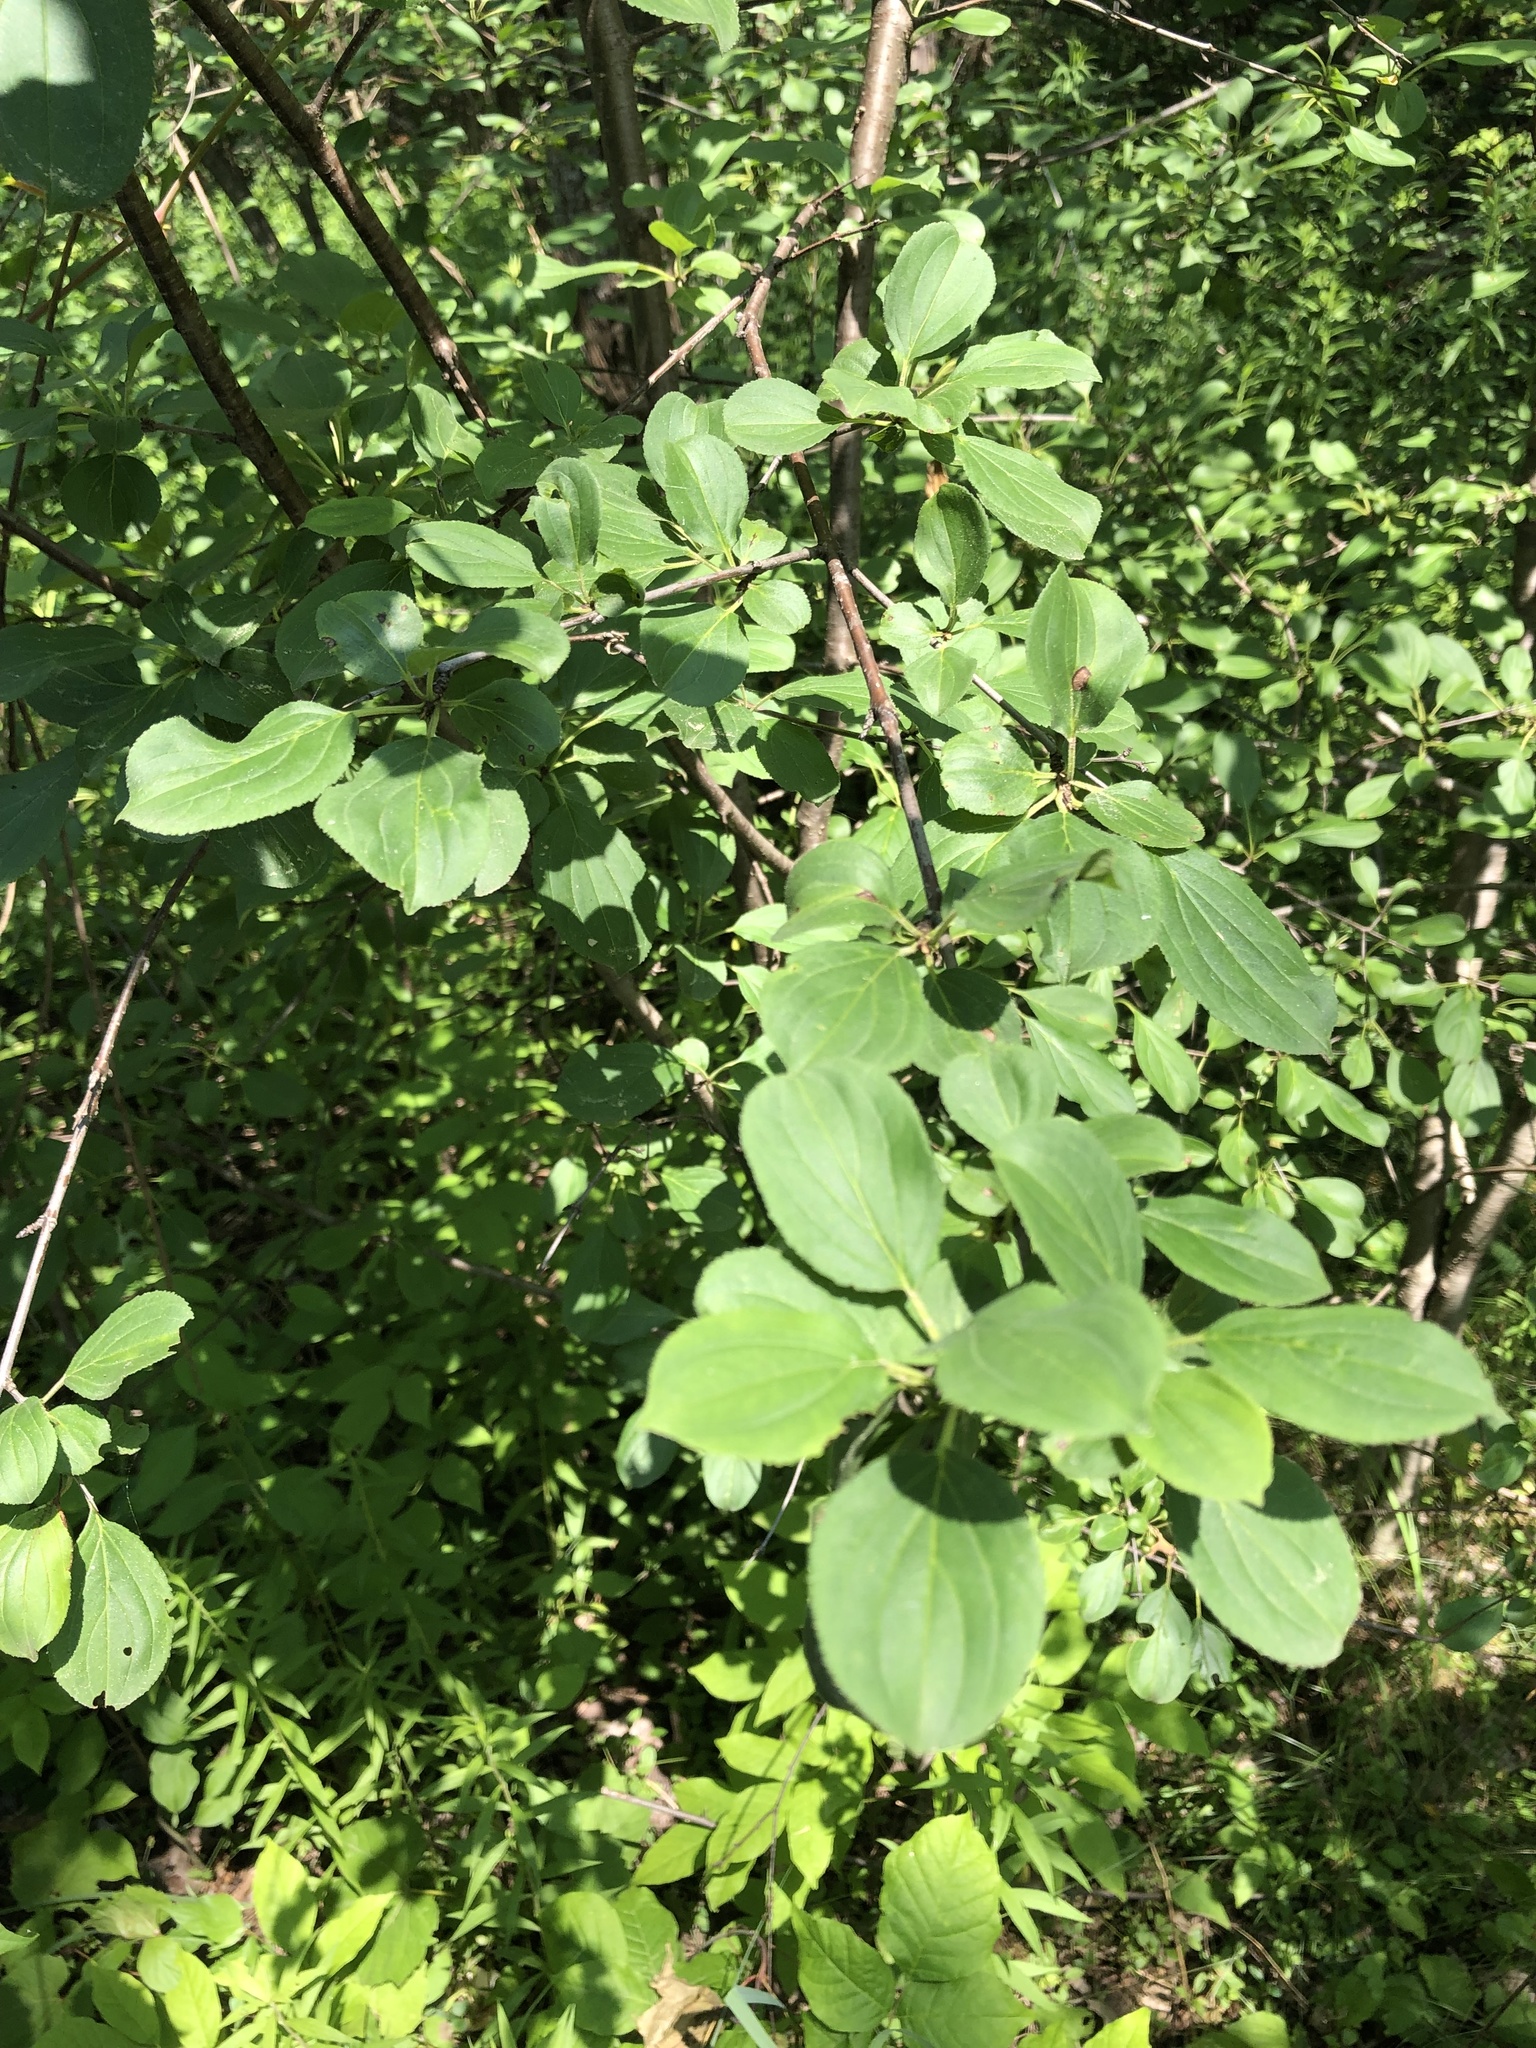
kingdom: Plantae
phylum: Tracheophyta
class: Magnoliopsida
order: Rosales
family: Rhamnaceae
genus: Rhamnus
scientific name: Rhamnus cathartica
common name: Common buckthorn
